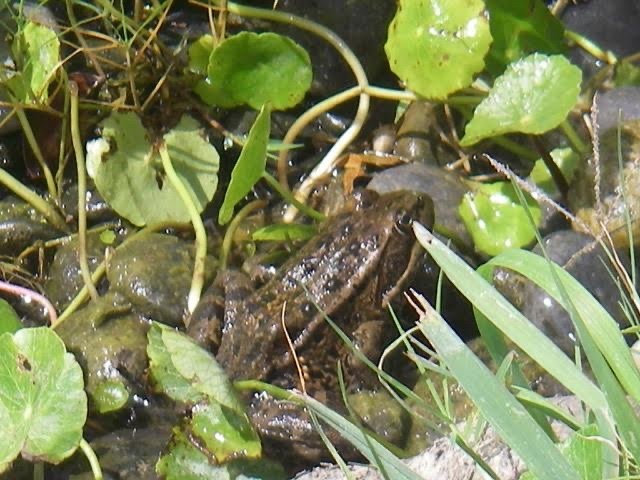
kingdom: Animalia
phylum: Chordata
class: Amphibia
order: Anura
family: Ranidae
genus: Rana
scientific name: Rana draytonii
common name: California red-legged frog
